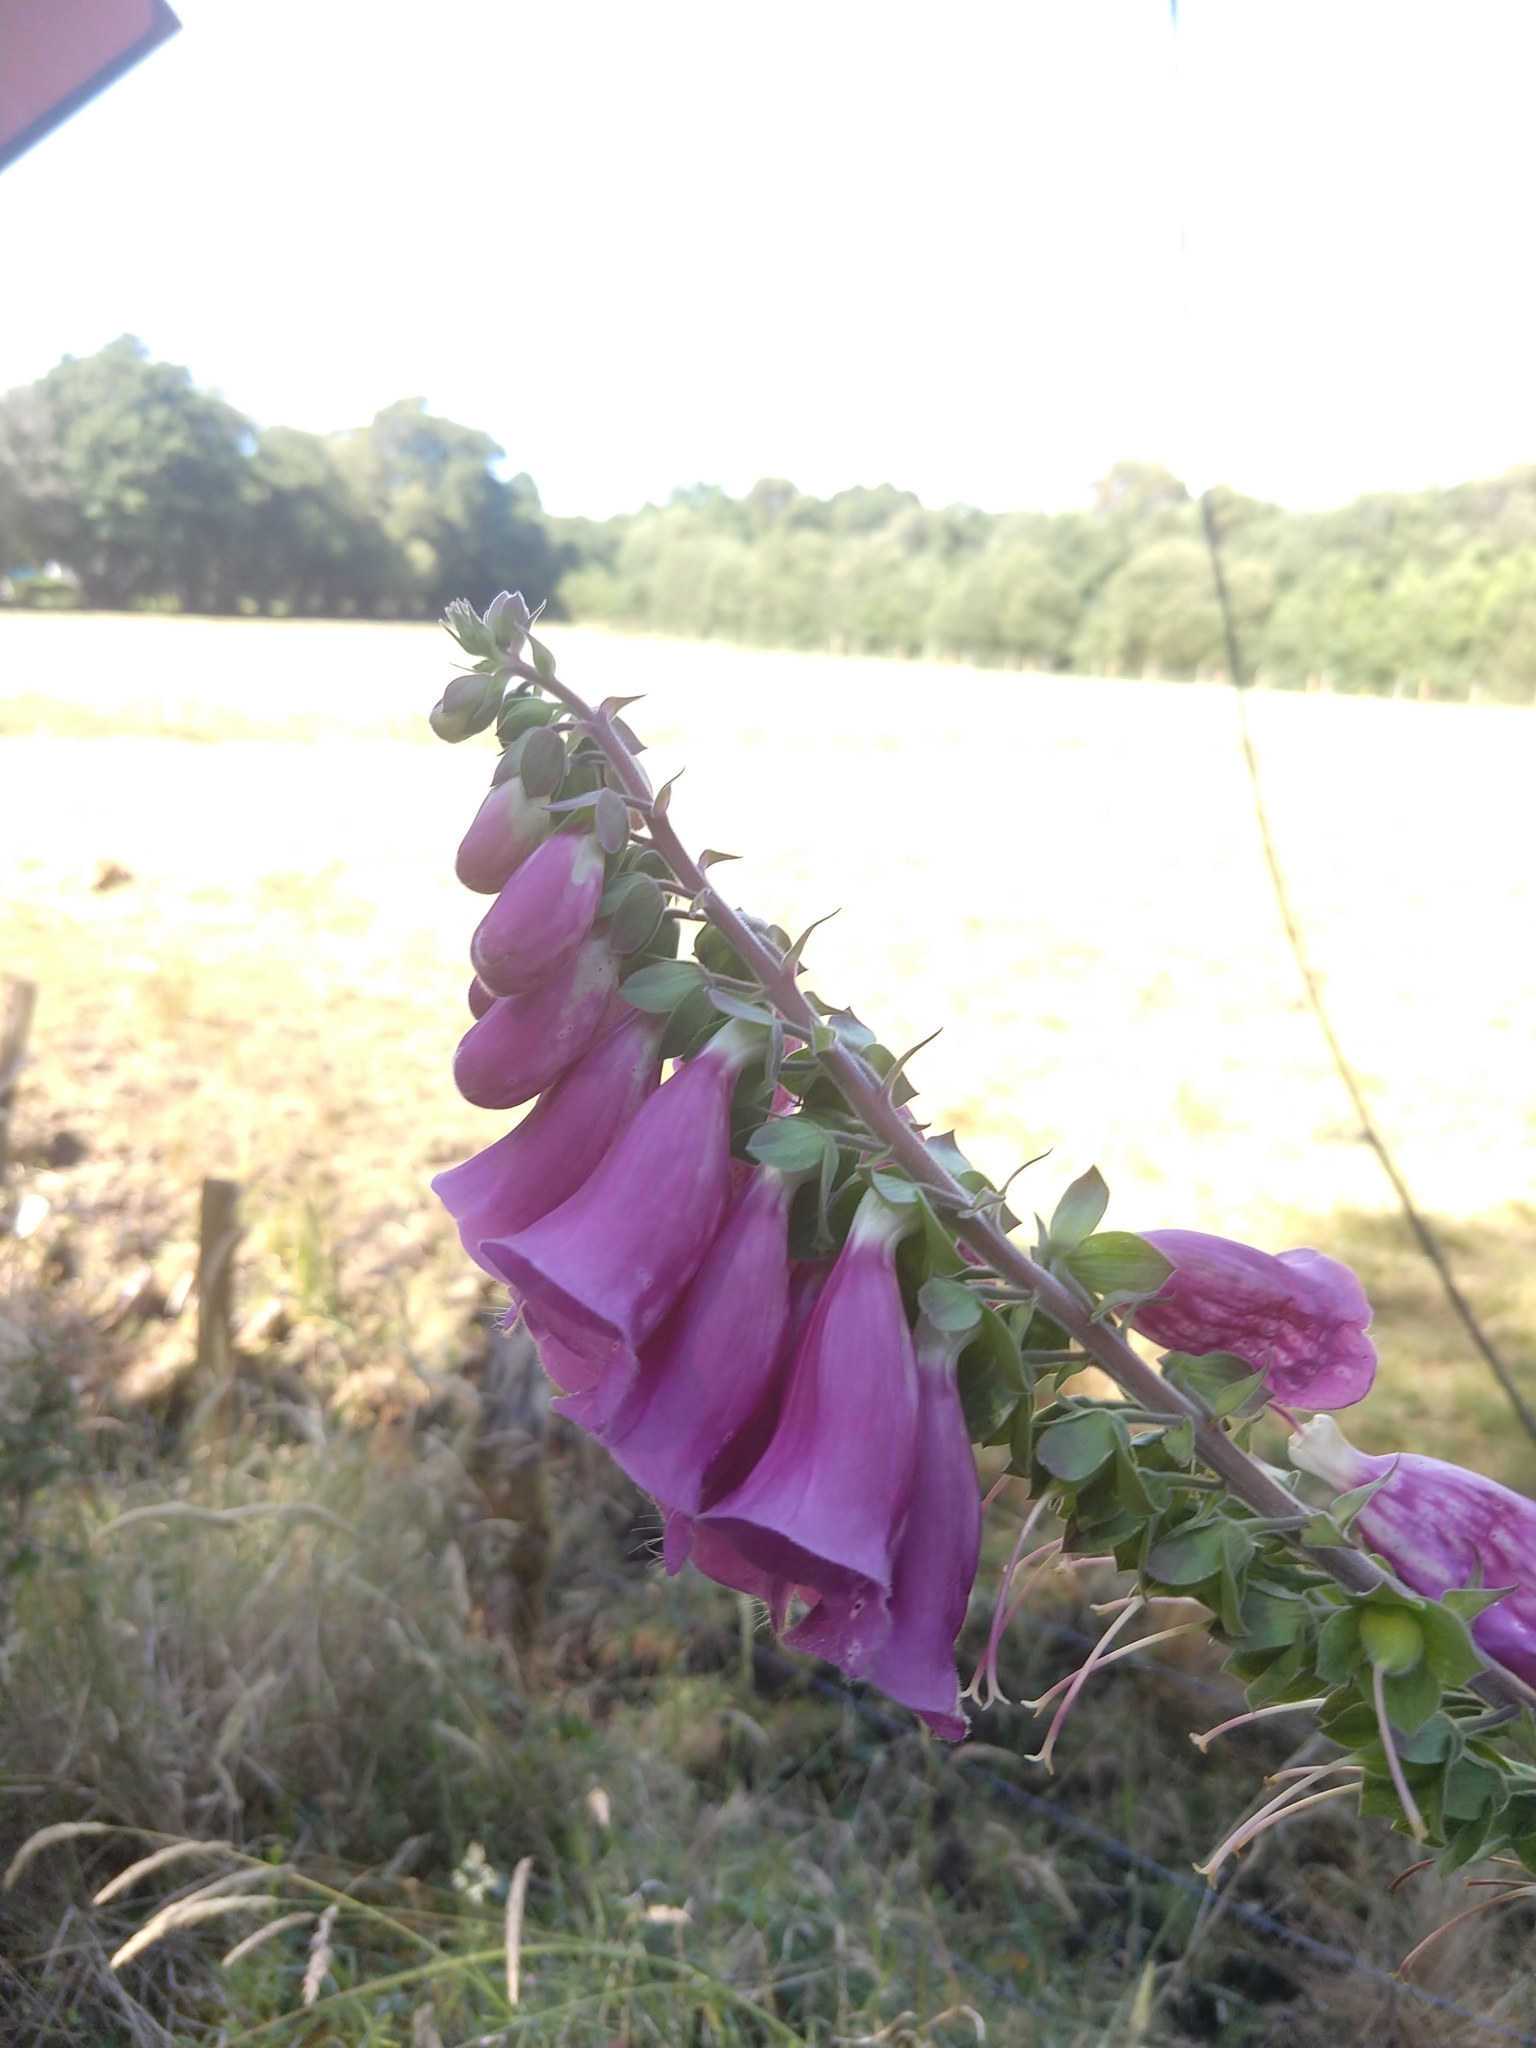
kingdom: Plantae
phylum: Tracheophyta
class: Magnoliopsida
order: Lamiales
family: Plantaginaceae
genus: Digitalis
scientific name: Digitalis purpurea
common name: Foxglove
